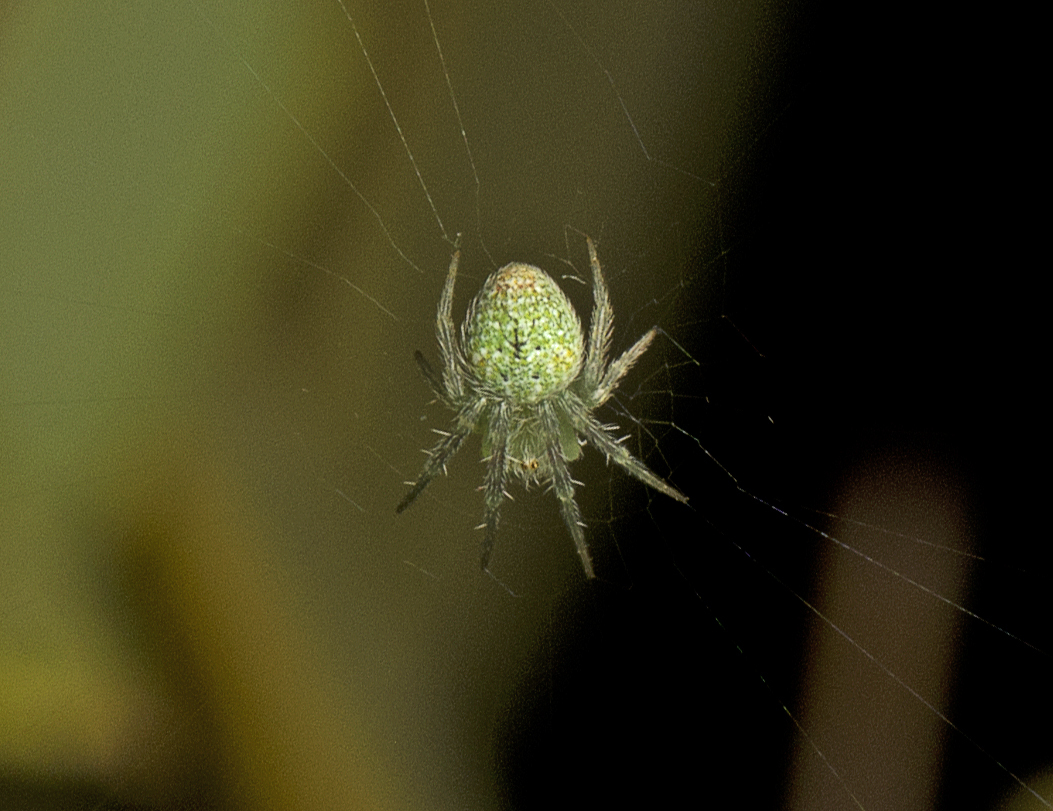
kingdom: Animalia
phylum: Arthropoda
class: Arachnida
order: Araneae
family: Araneidae
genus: Araneus
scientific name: Araneus circulissparsus
